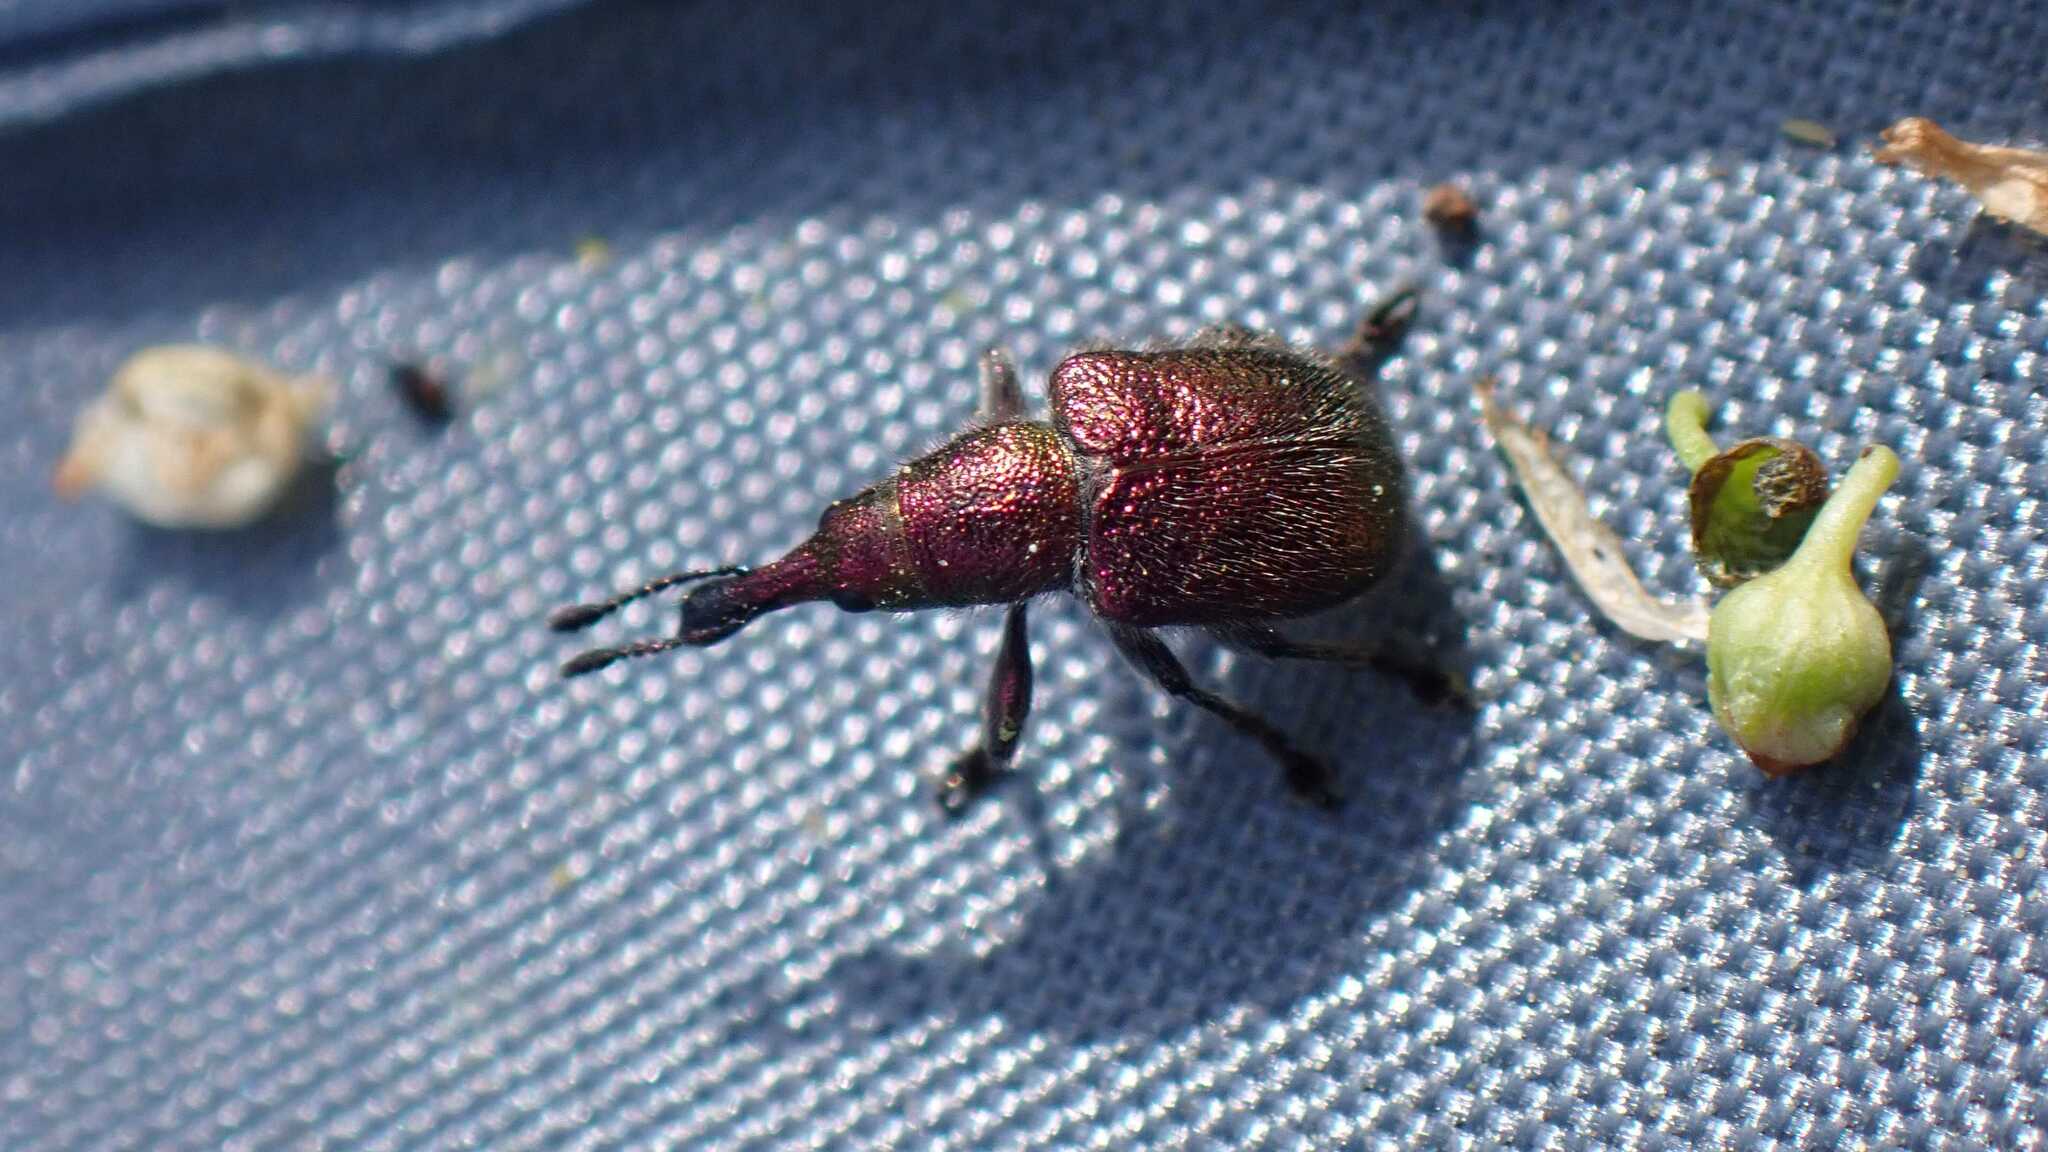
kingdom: Animalia
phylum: Arthropoda
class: Insecta
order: Coleoptera
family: Attelabidae
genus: Rhynchites
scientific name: Rhynchites auratus
